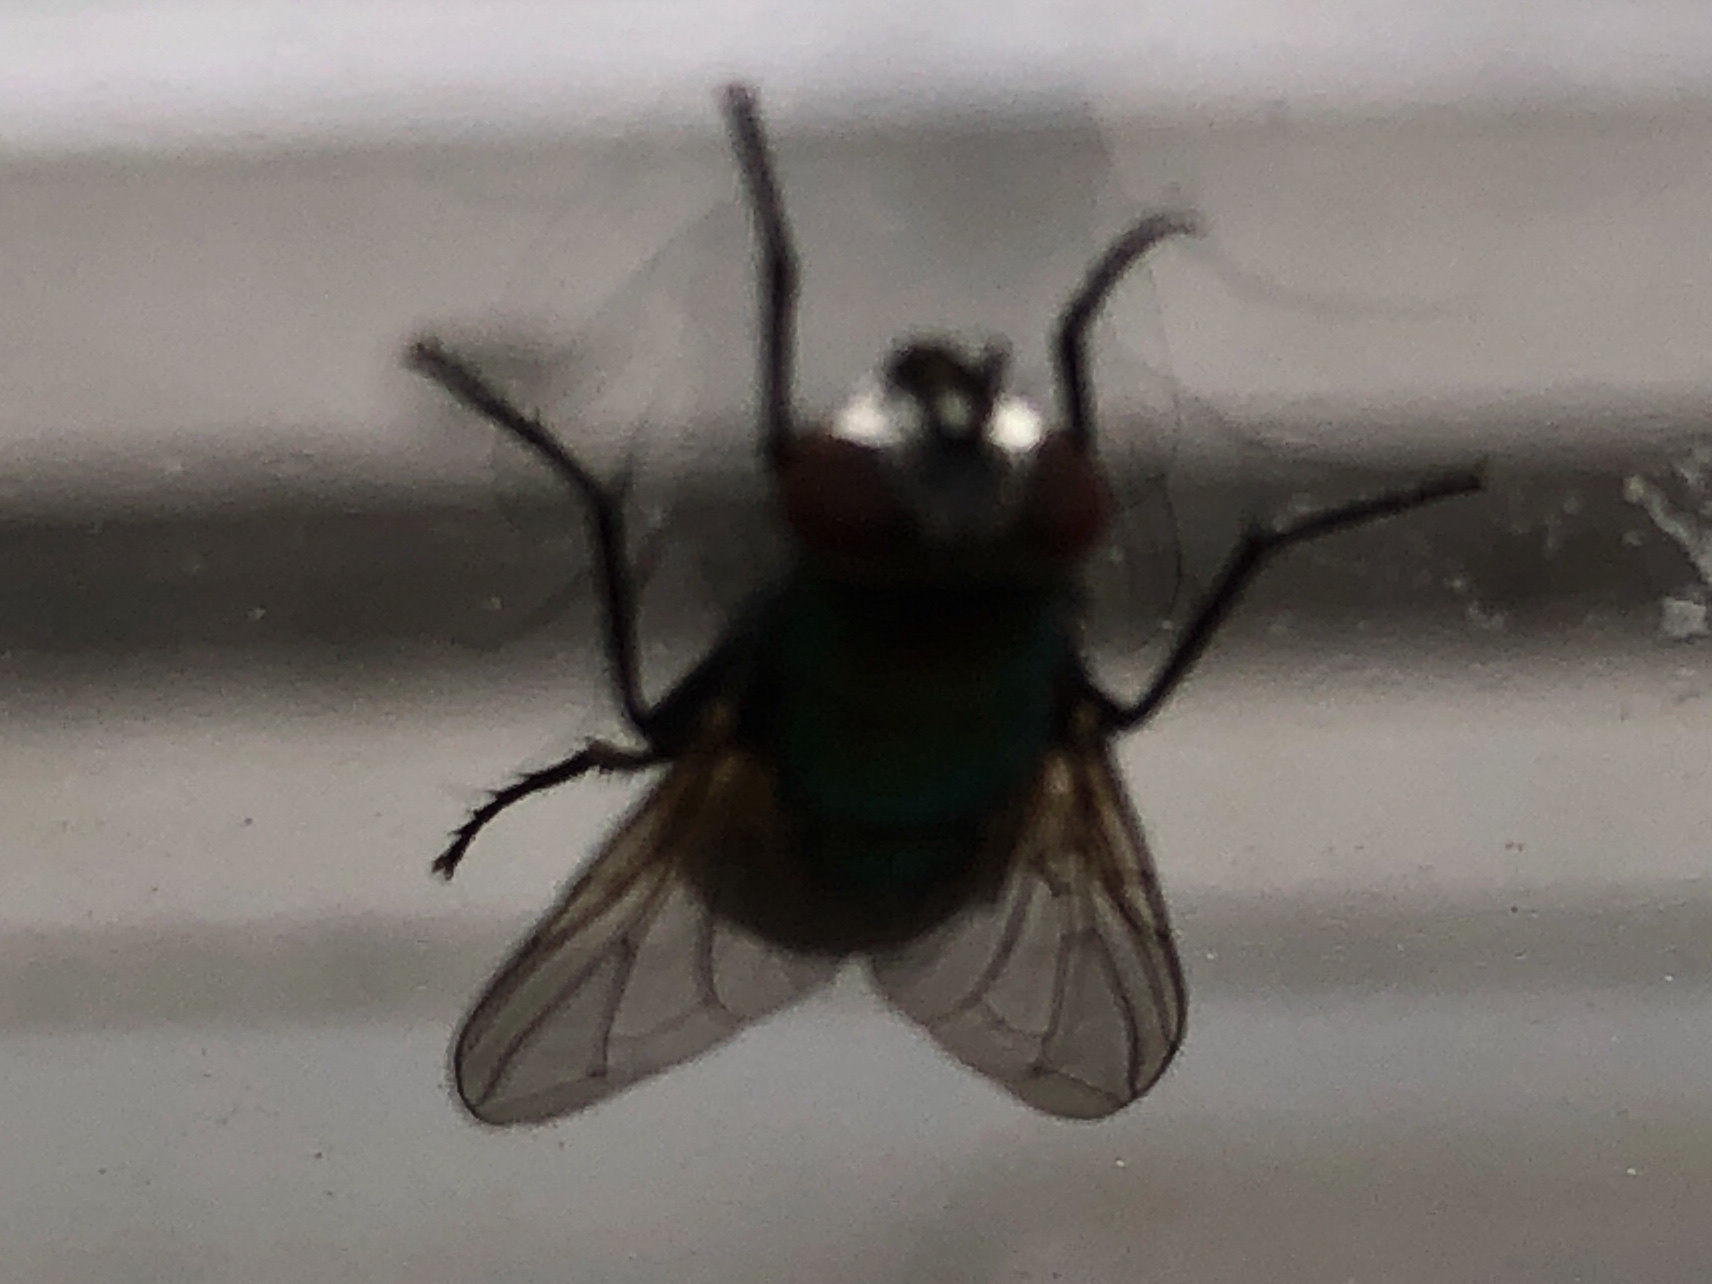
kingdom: Animalia
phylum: Arthropoda
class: Insecta
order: Diptera
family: Calliphoridae
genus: Lucilia
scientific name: Lucilia sericata
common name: Blow fly
